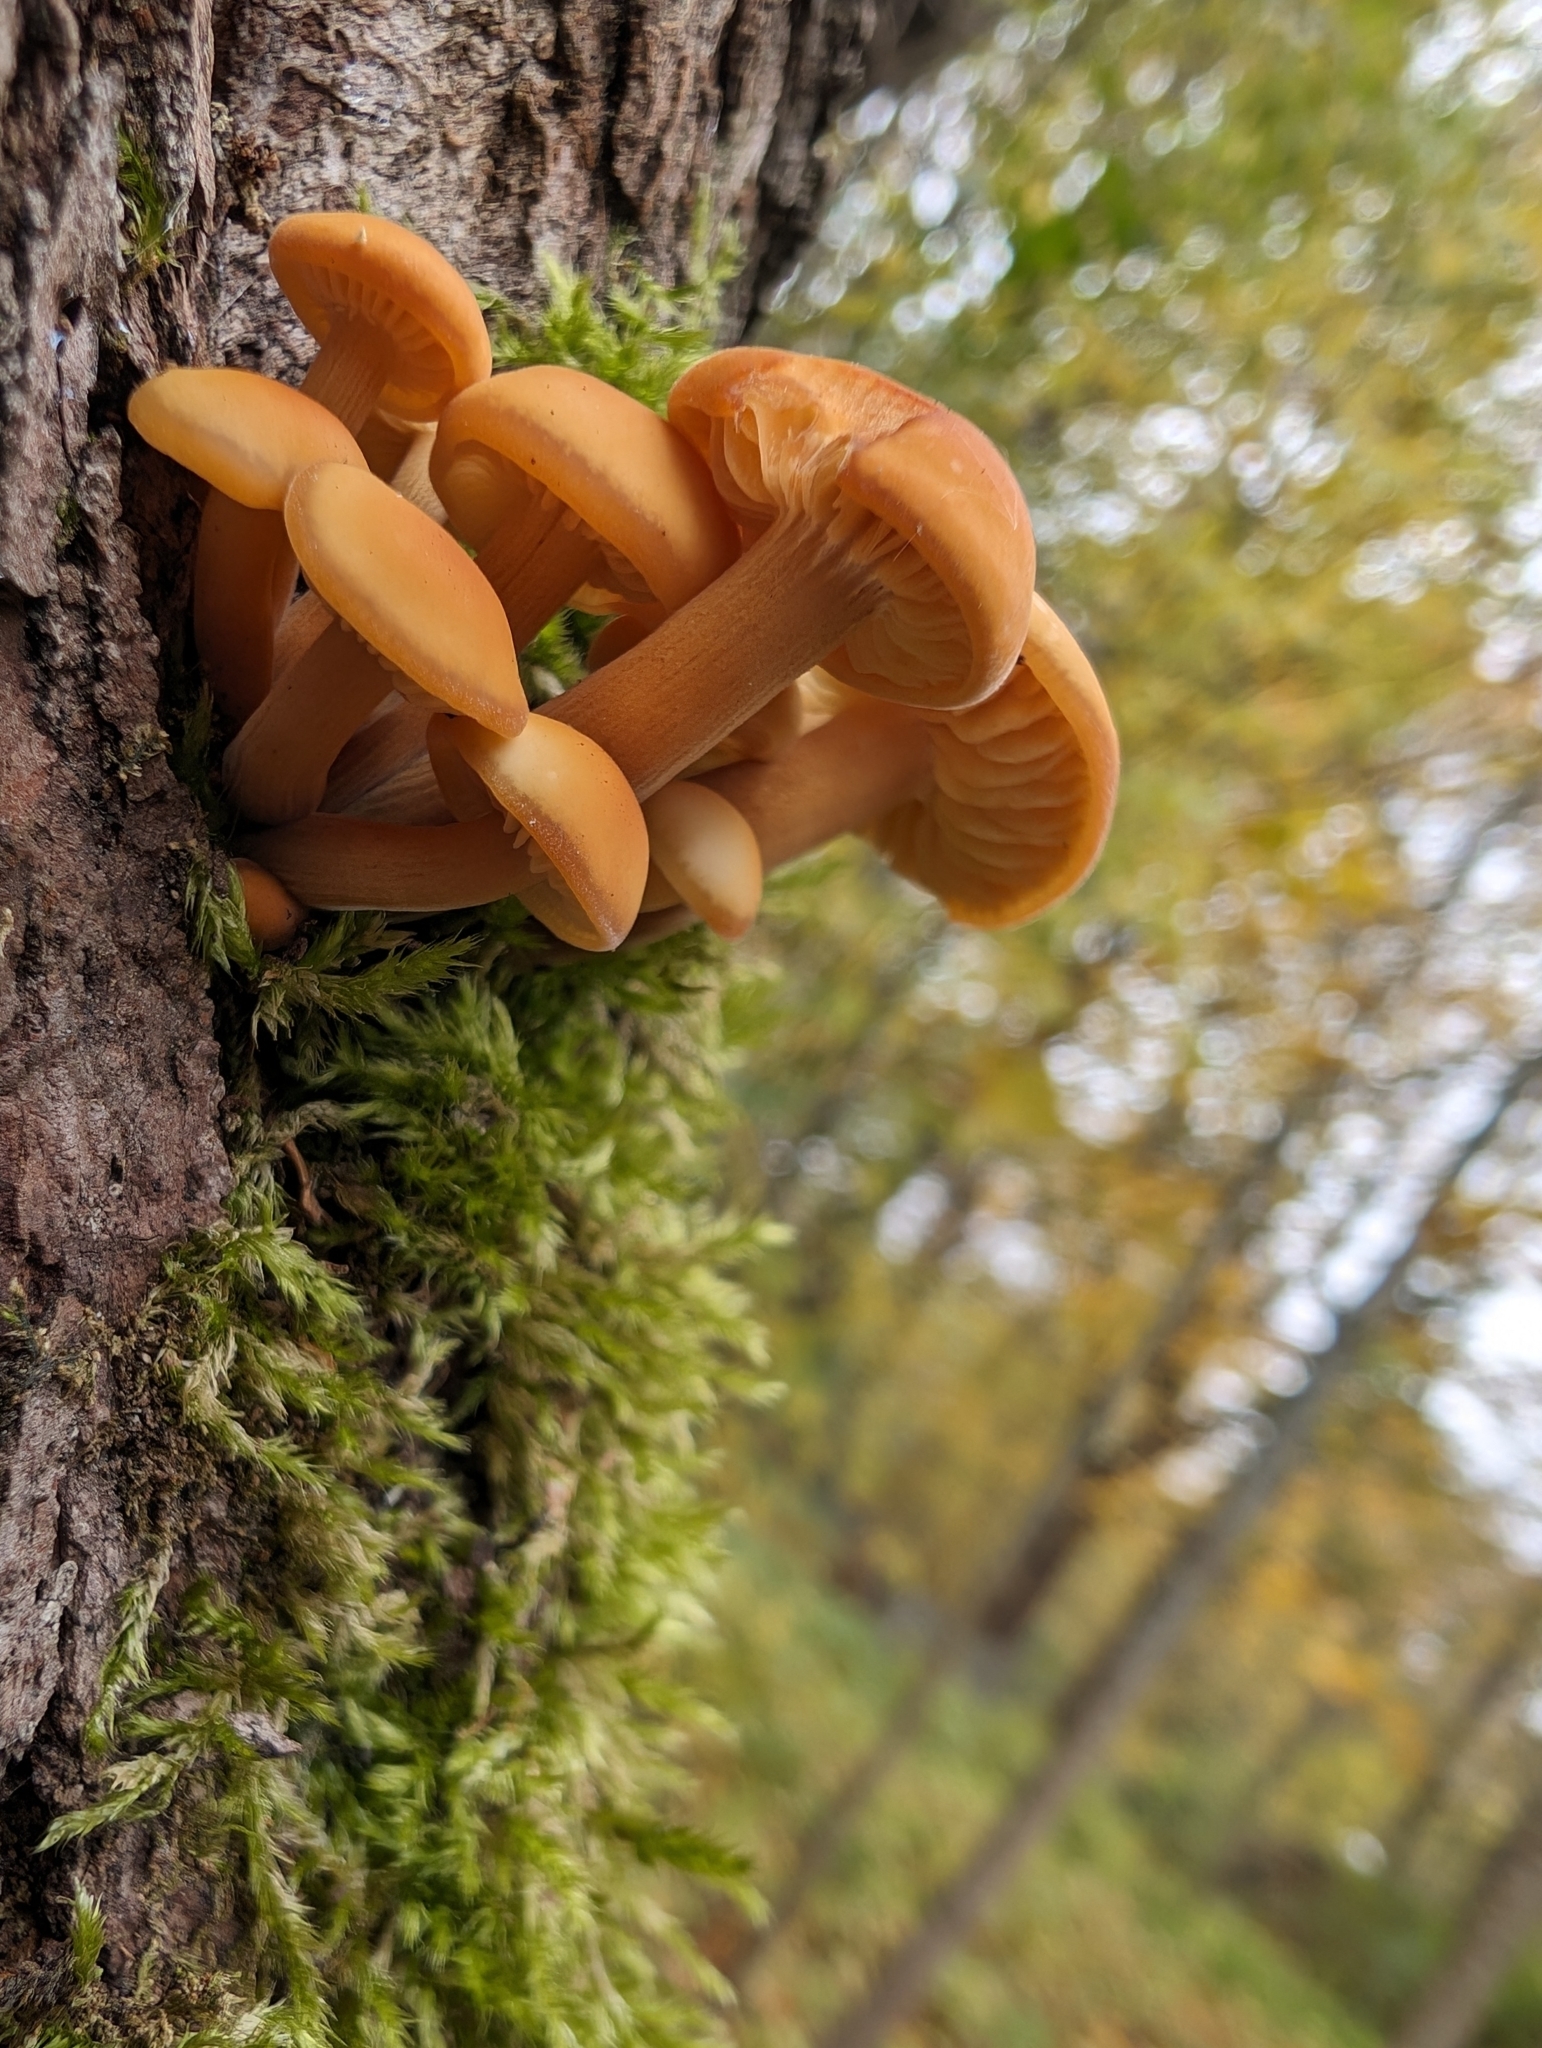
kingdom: Fungi
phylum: Basidiomycota
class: Agaricomycetes
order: Agaricales
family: Physalacriaceae
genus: Flammulina
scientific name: Flammulina
